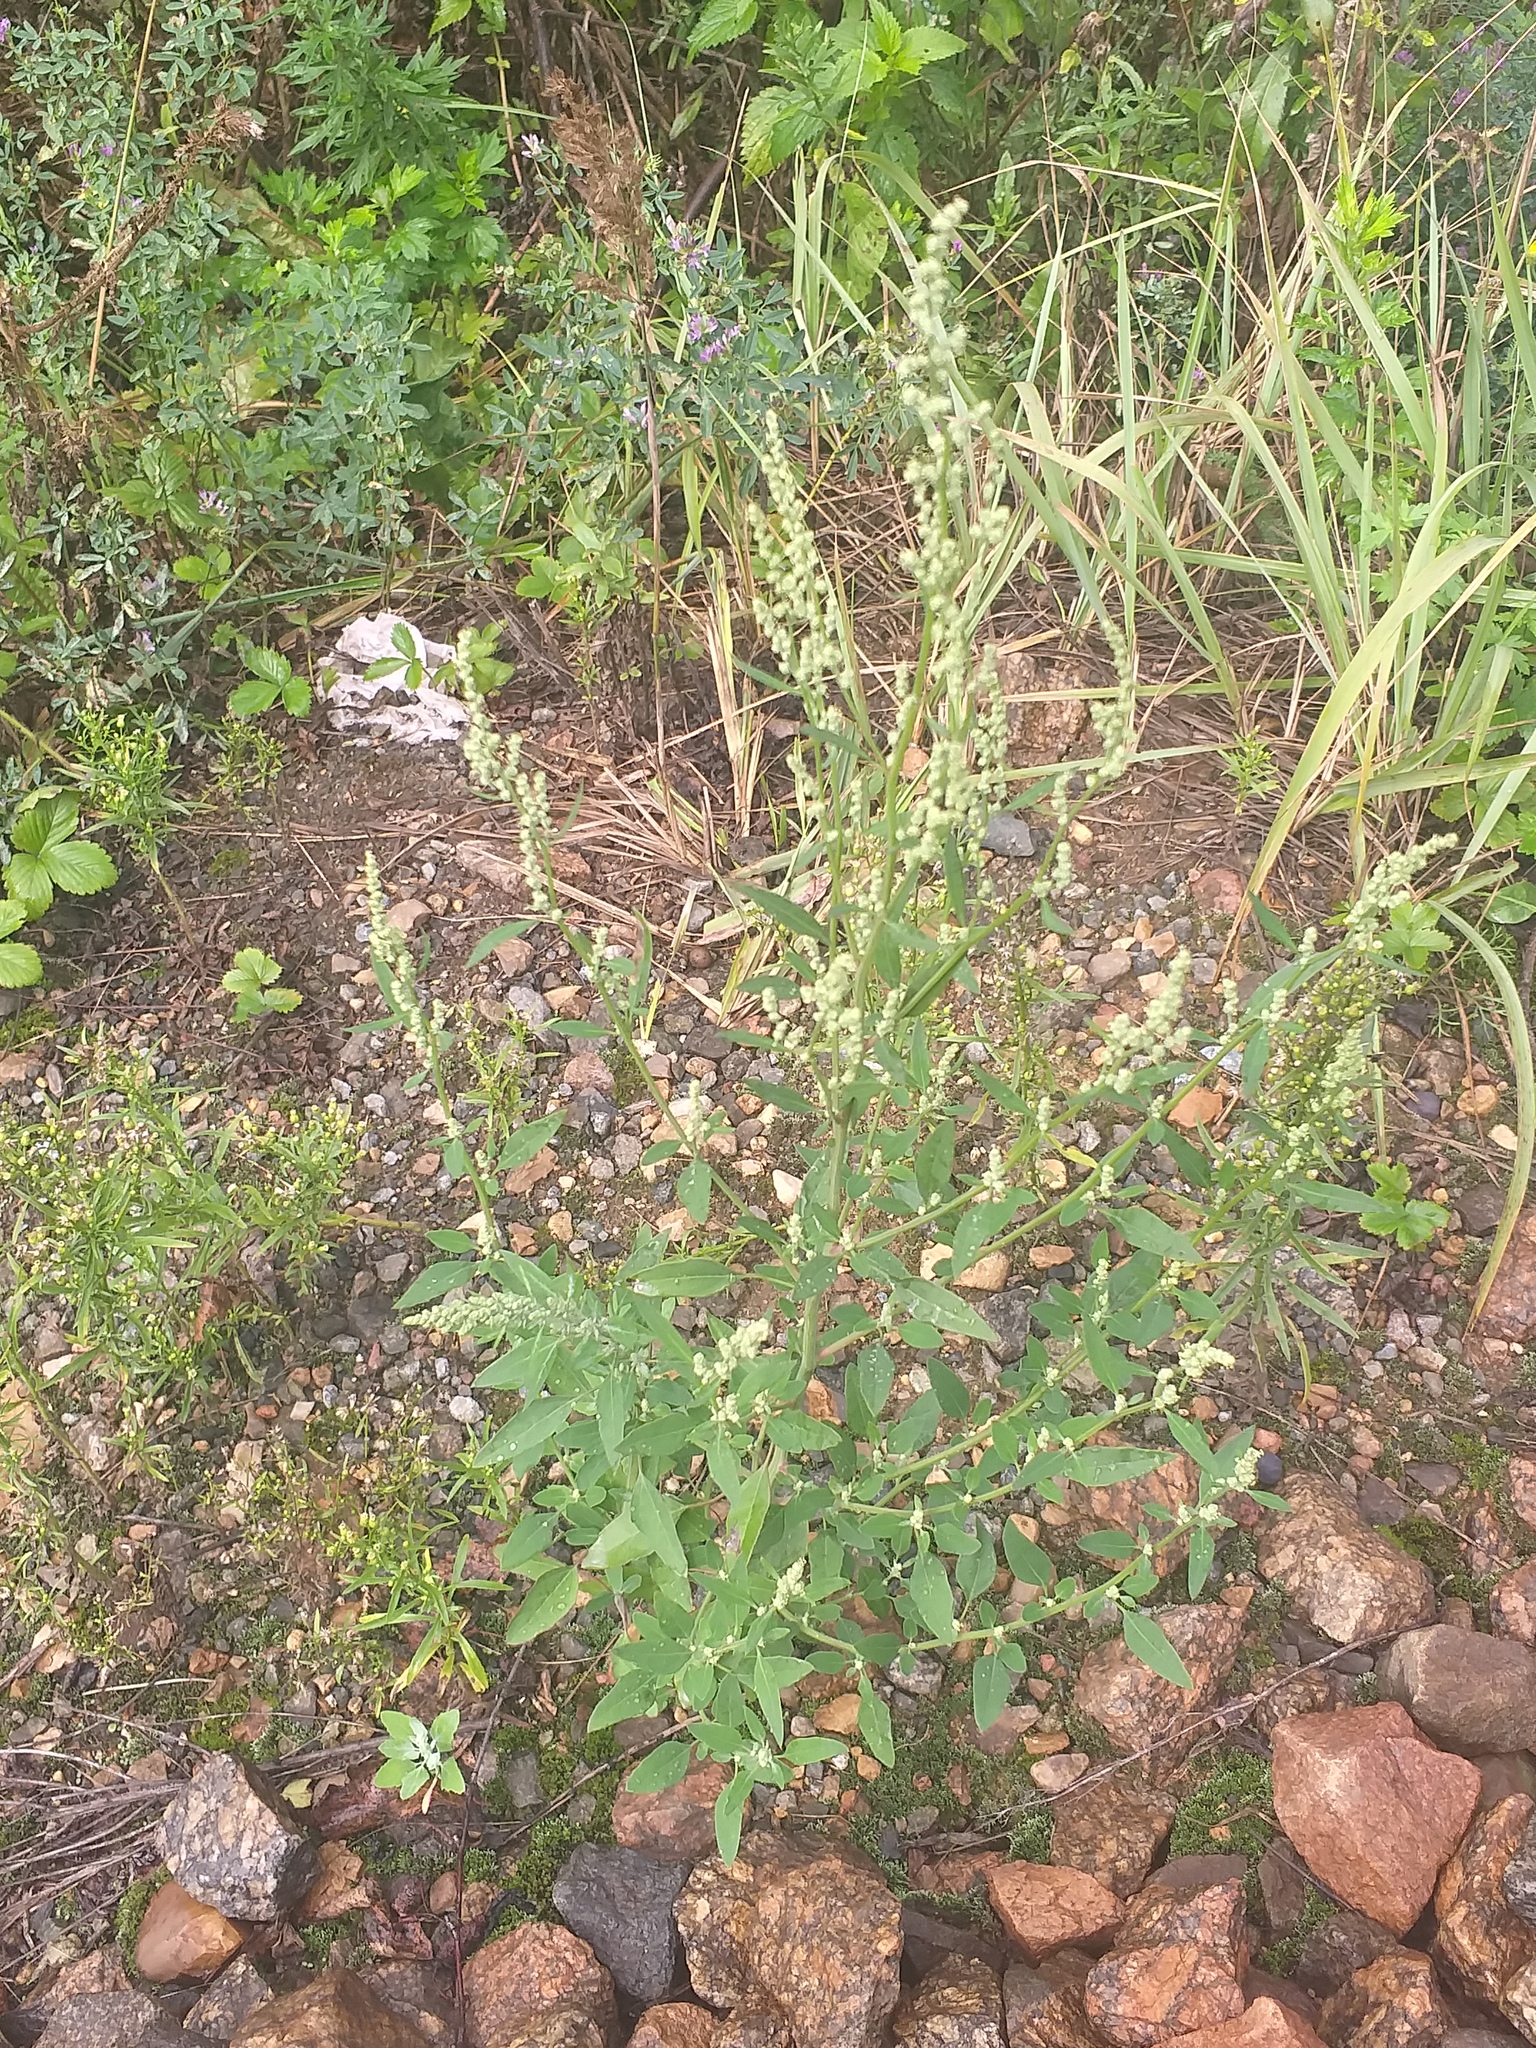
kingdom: Plantae
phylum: Tracheophyta
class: Magnoliopsida
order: Caryophyllales
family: Amaranthaceae
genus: Chenopodium
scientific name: Chenopodium album
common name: Fat-hen
